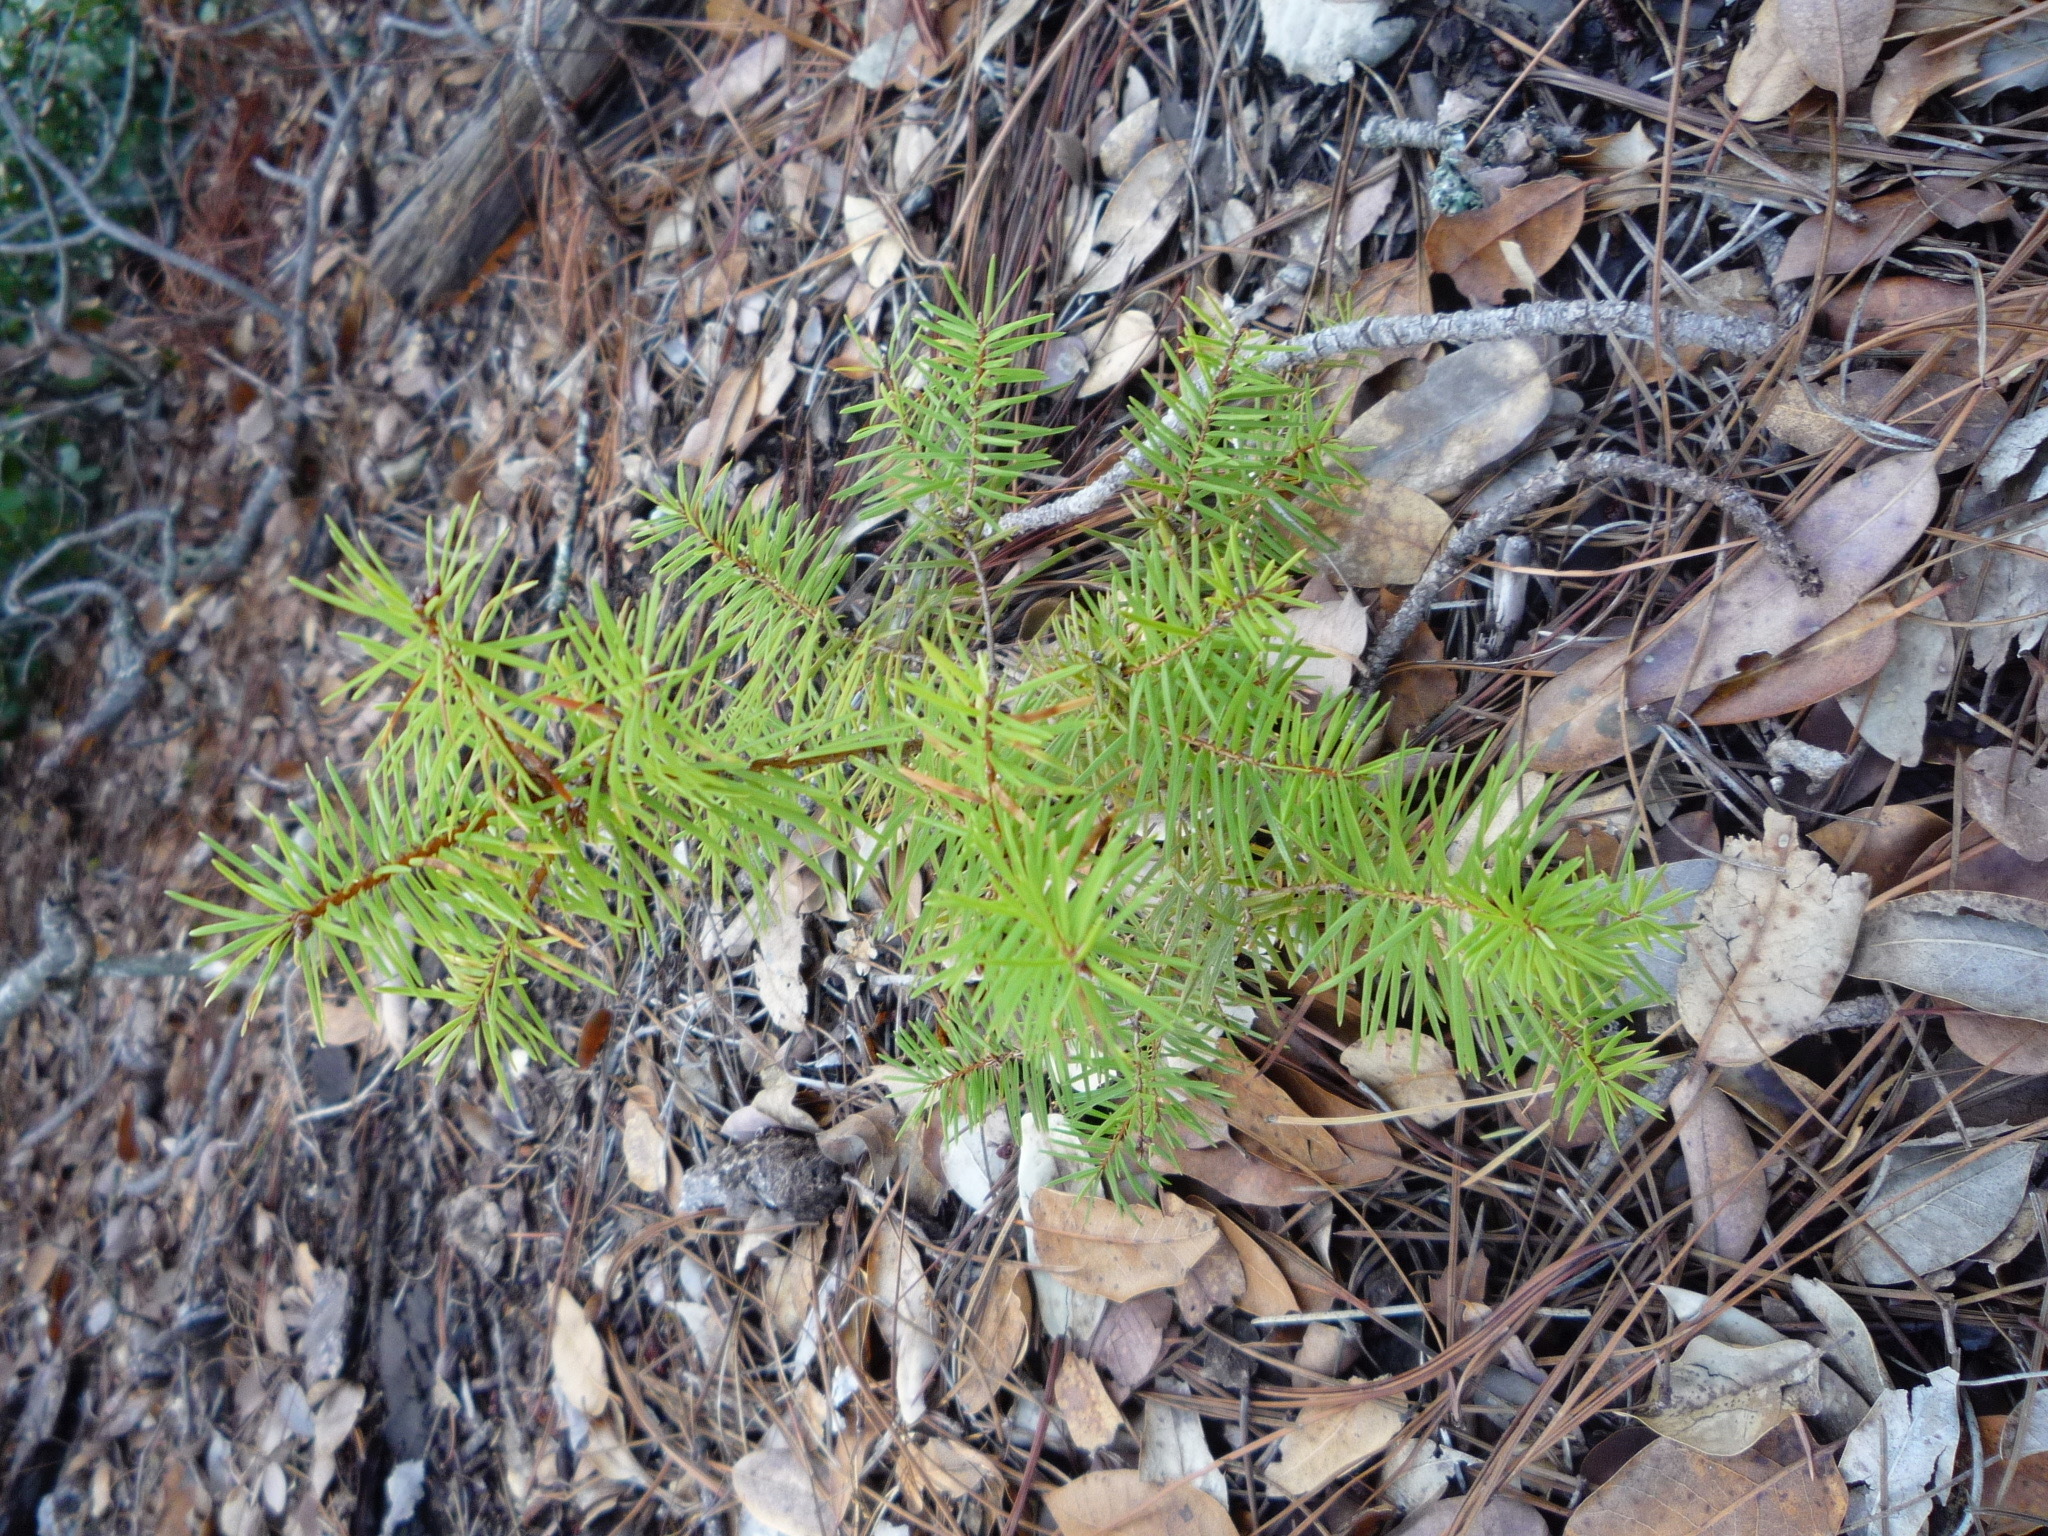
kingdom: Plantae
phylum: Tracheophyta
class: Pinopsida
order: Pinales
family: Pinaceae
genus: Pseudotsuga
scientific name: Pseudotsuga menziesii
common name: Douglas fir
